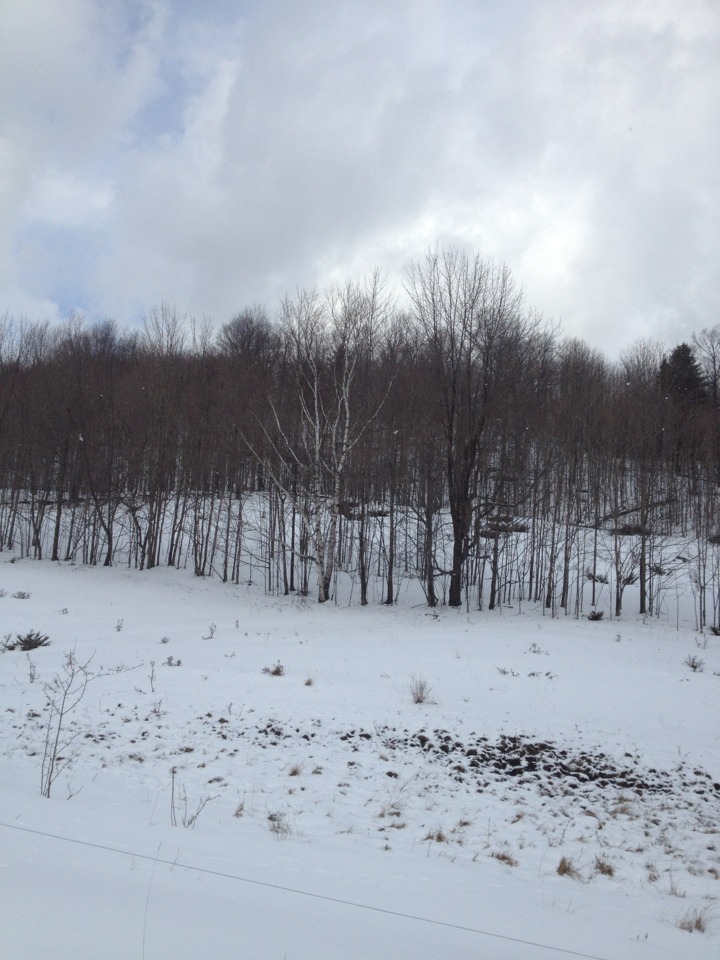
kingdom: Plantae
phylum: Tracheophyta
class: Magnoliopsida
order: Fagales
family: Betulaceae
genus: Betula
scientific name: Betula papyrifera
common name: Paper birch
